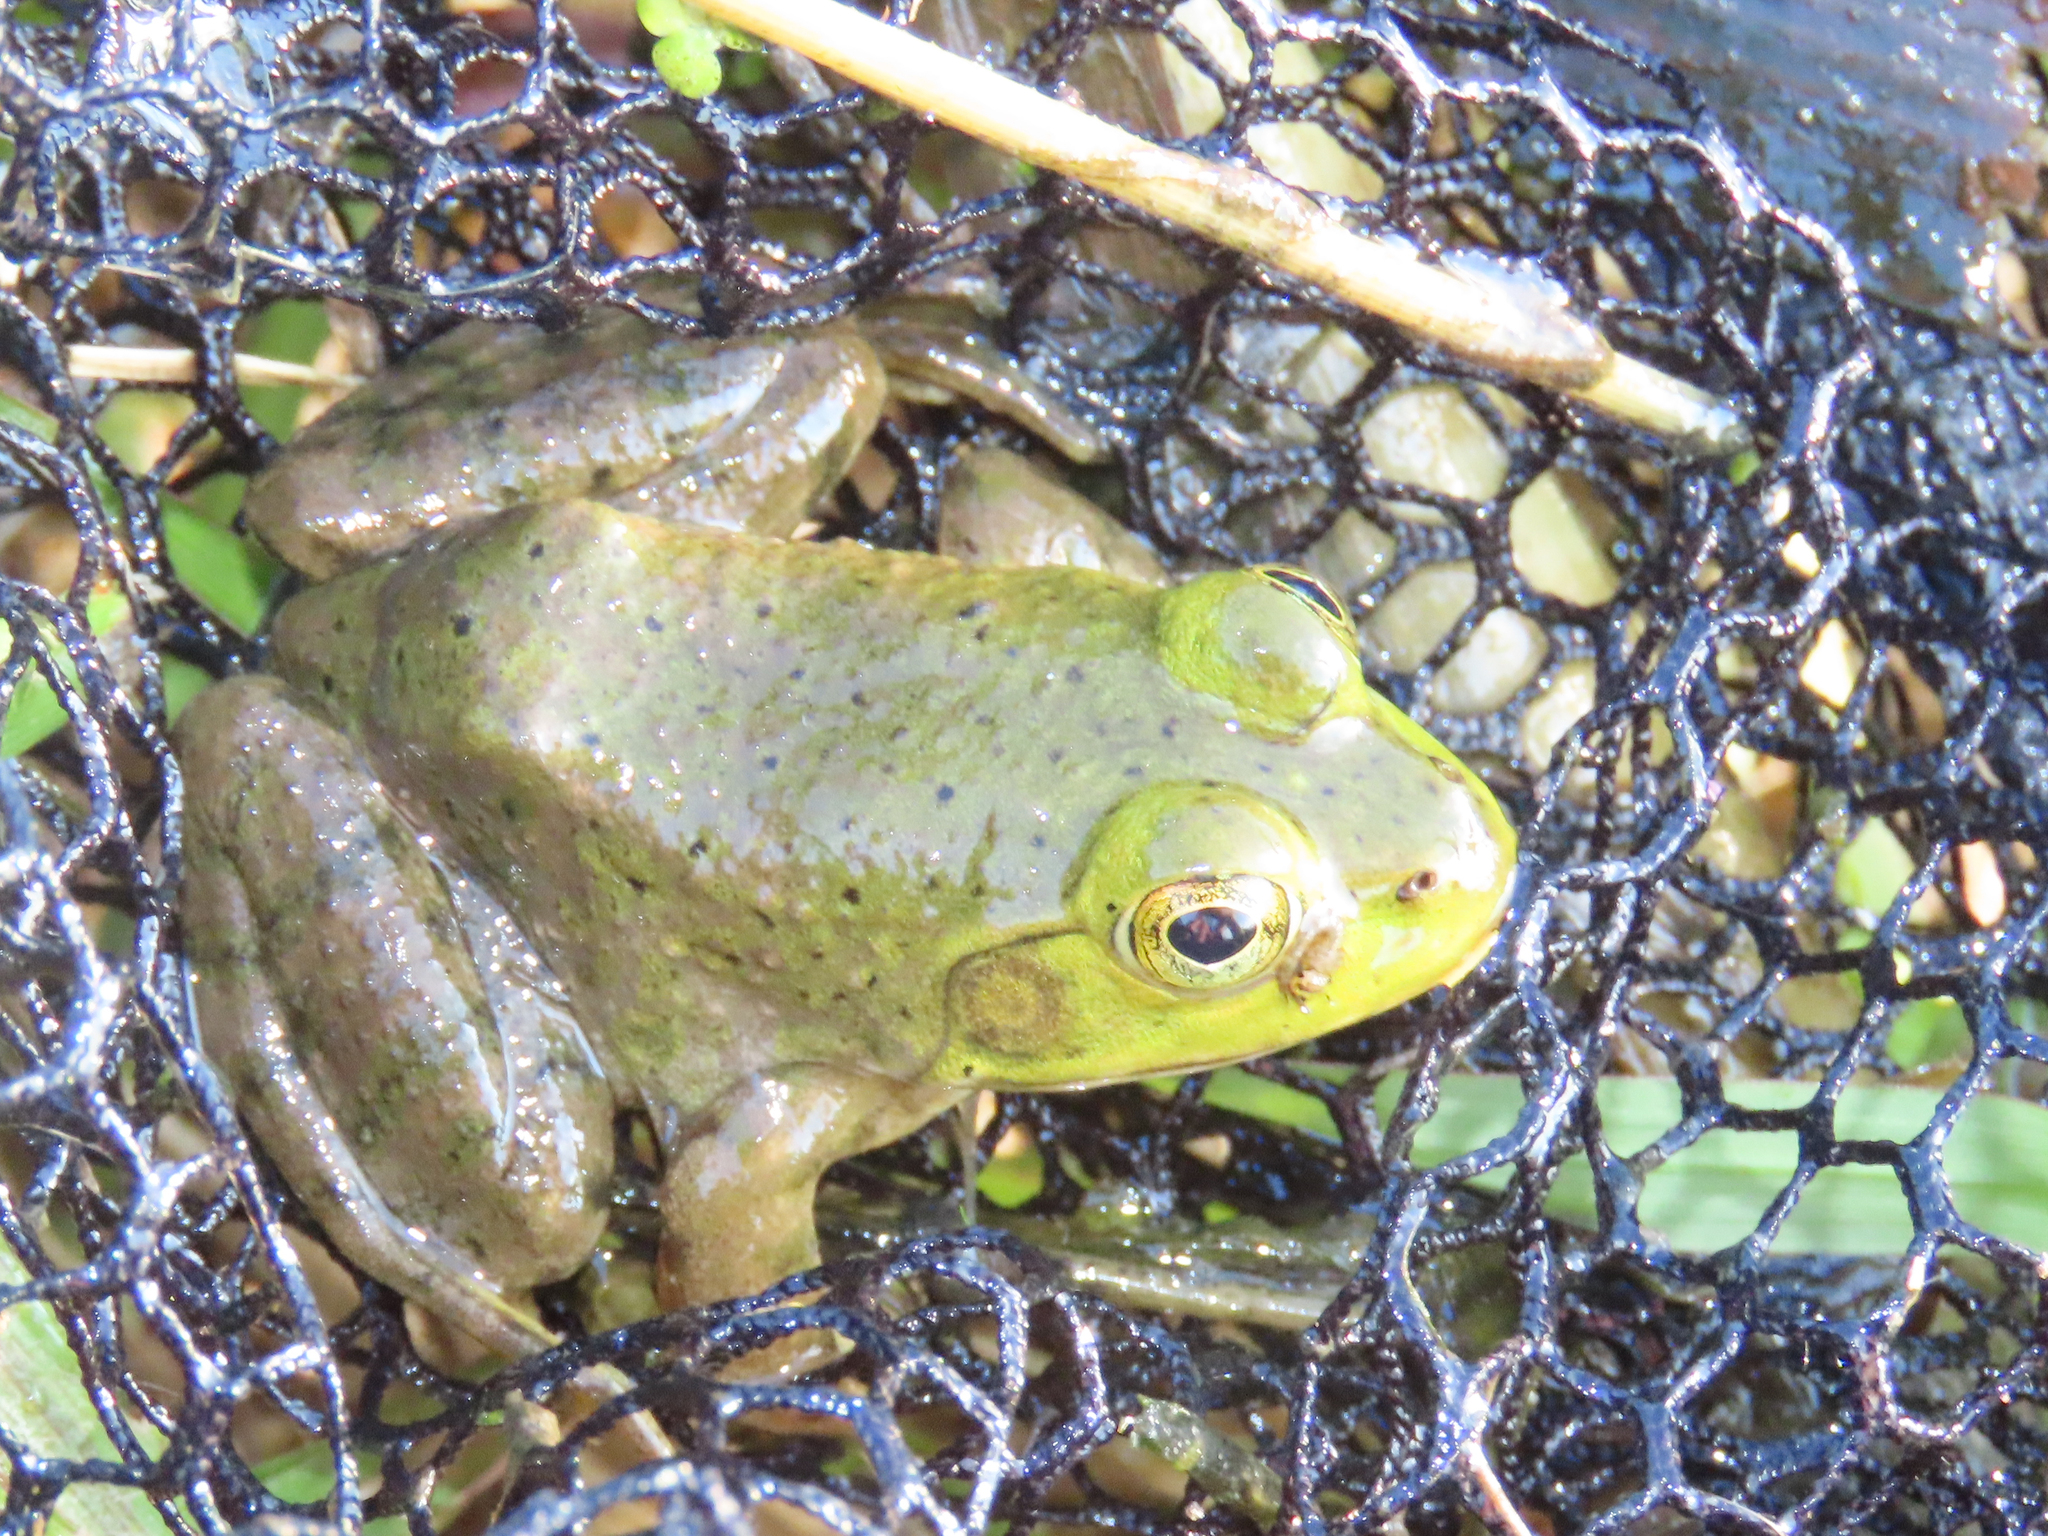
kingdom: Animalia
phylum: Chordata
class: Amphibia
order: Anura
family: Ranidae
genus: Lithobates
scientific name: Lithobates catesbeianus
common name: American bullfrog
